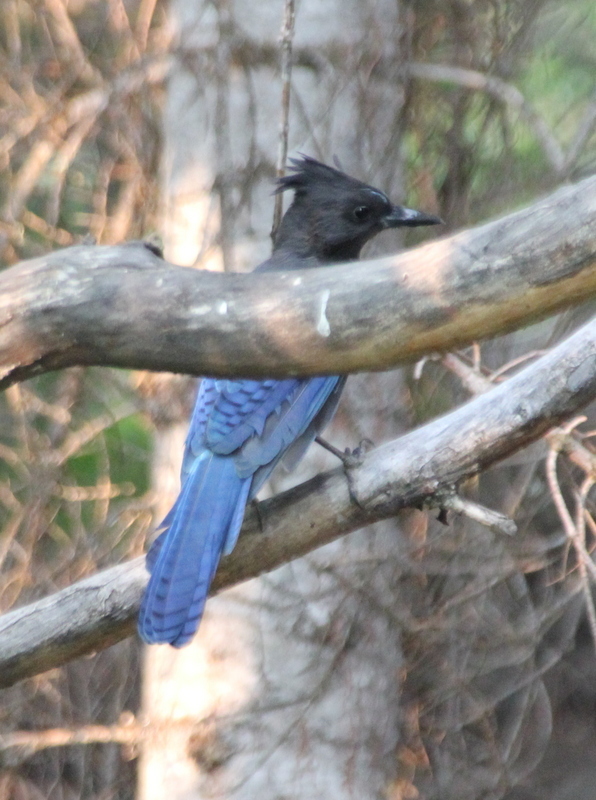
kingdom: Animalia
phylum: Chordata
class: Aves
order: Passeriformes
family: Corvidae
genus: Cyanocitta
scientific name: Cyanocitta stelleri
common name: Steller's jay
